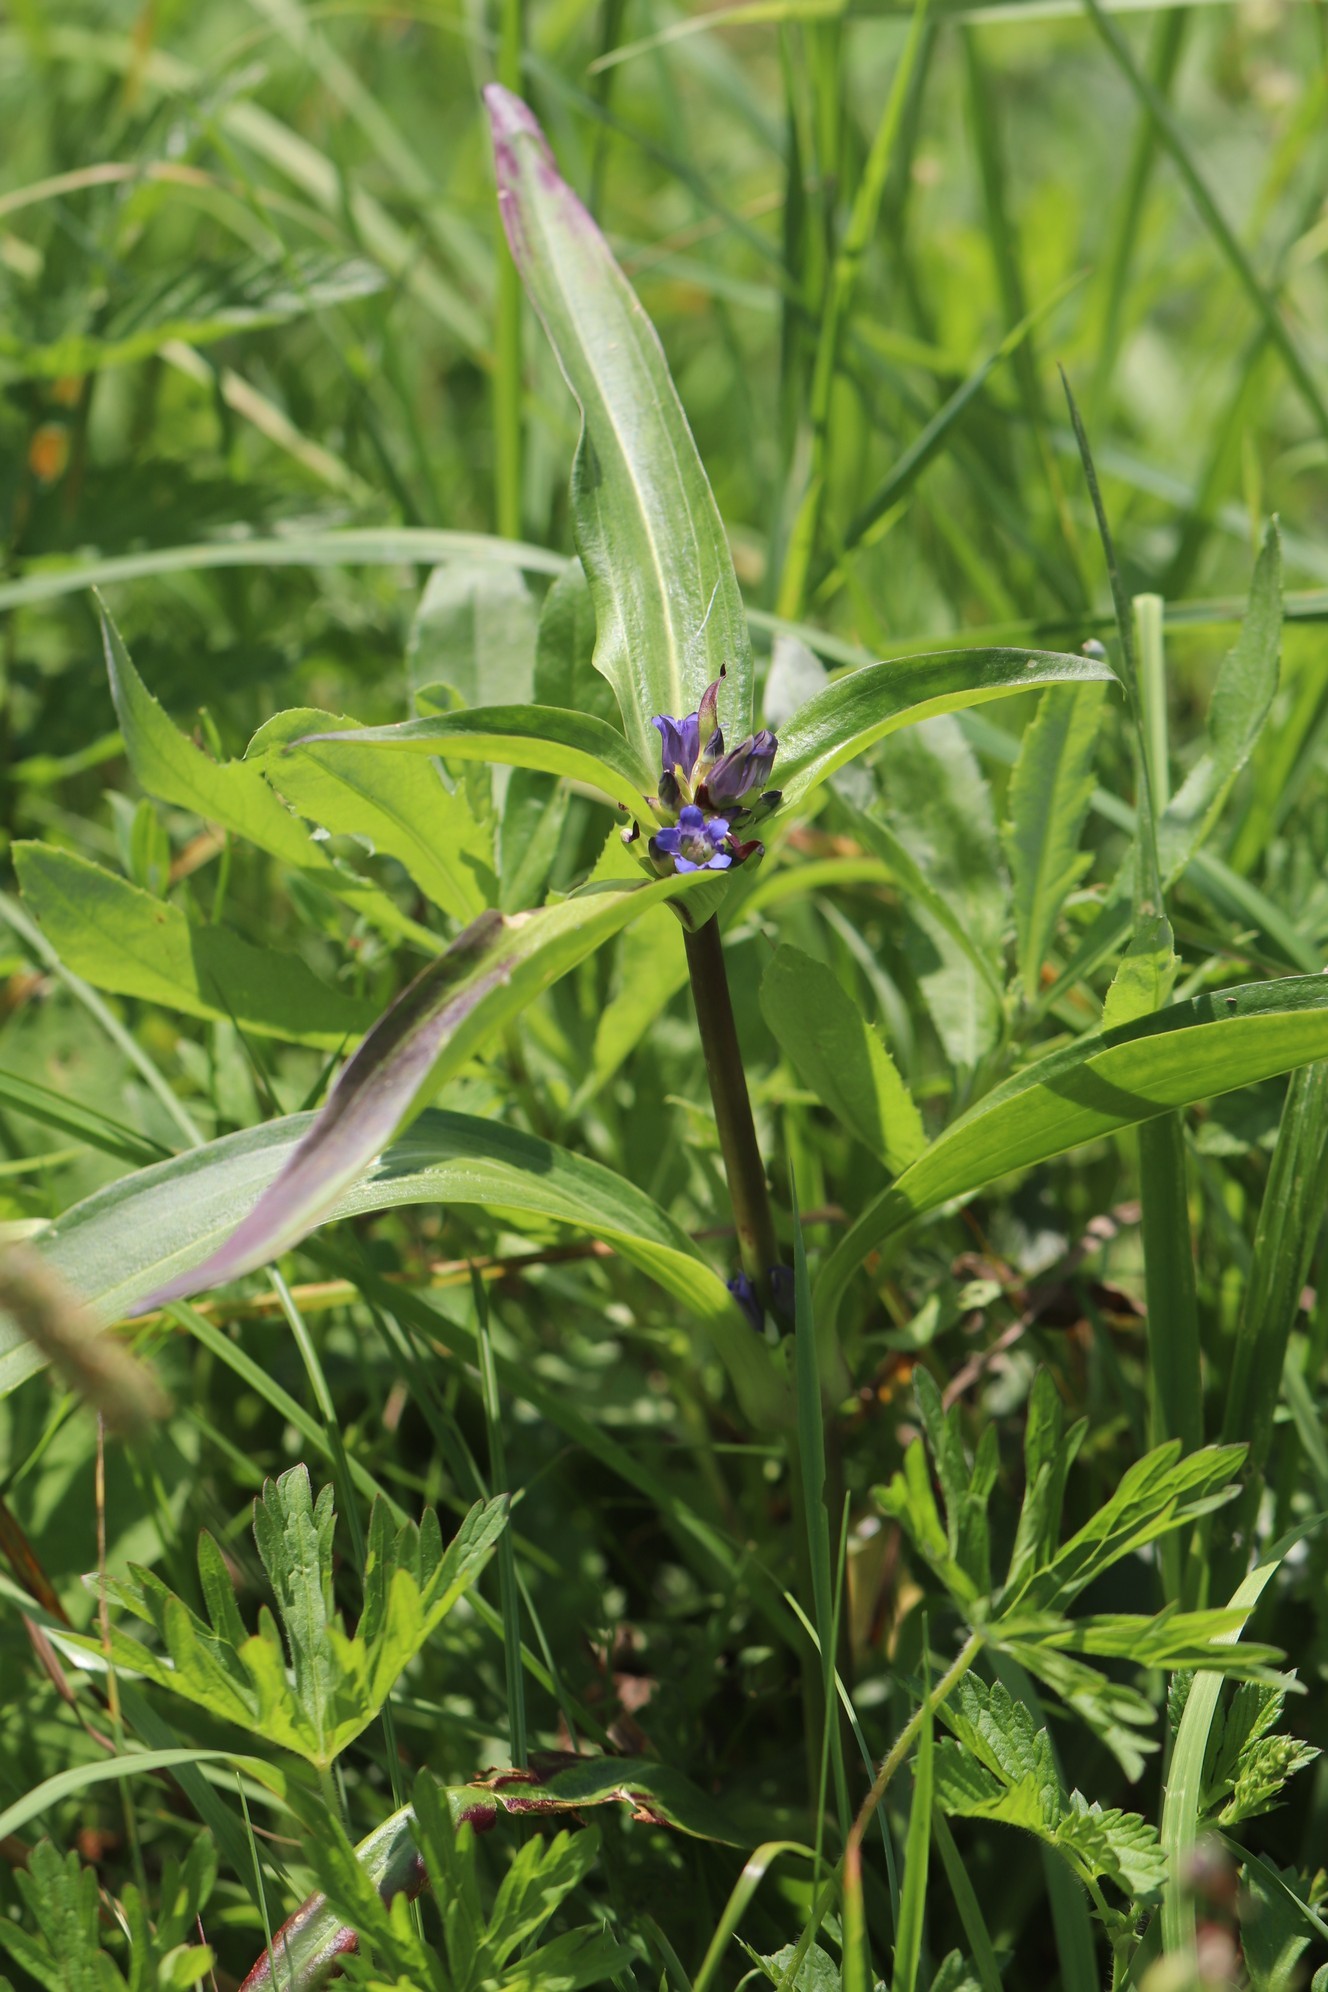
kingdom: Plantae
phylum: Tracheophyta
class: Magnoliopsida
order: Gentianales
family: Gentianaceae
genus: Gentiana
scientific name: Gentiana macrophylla
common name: Large-leaf gentian
